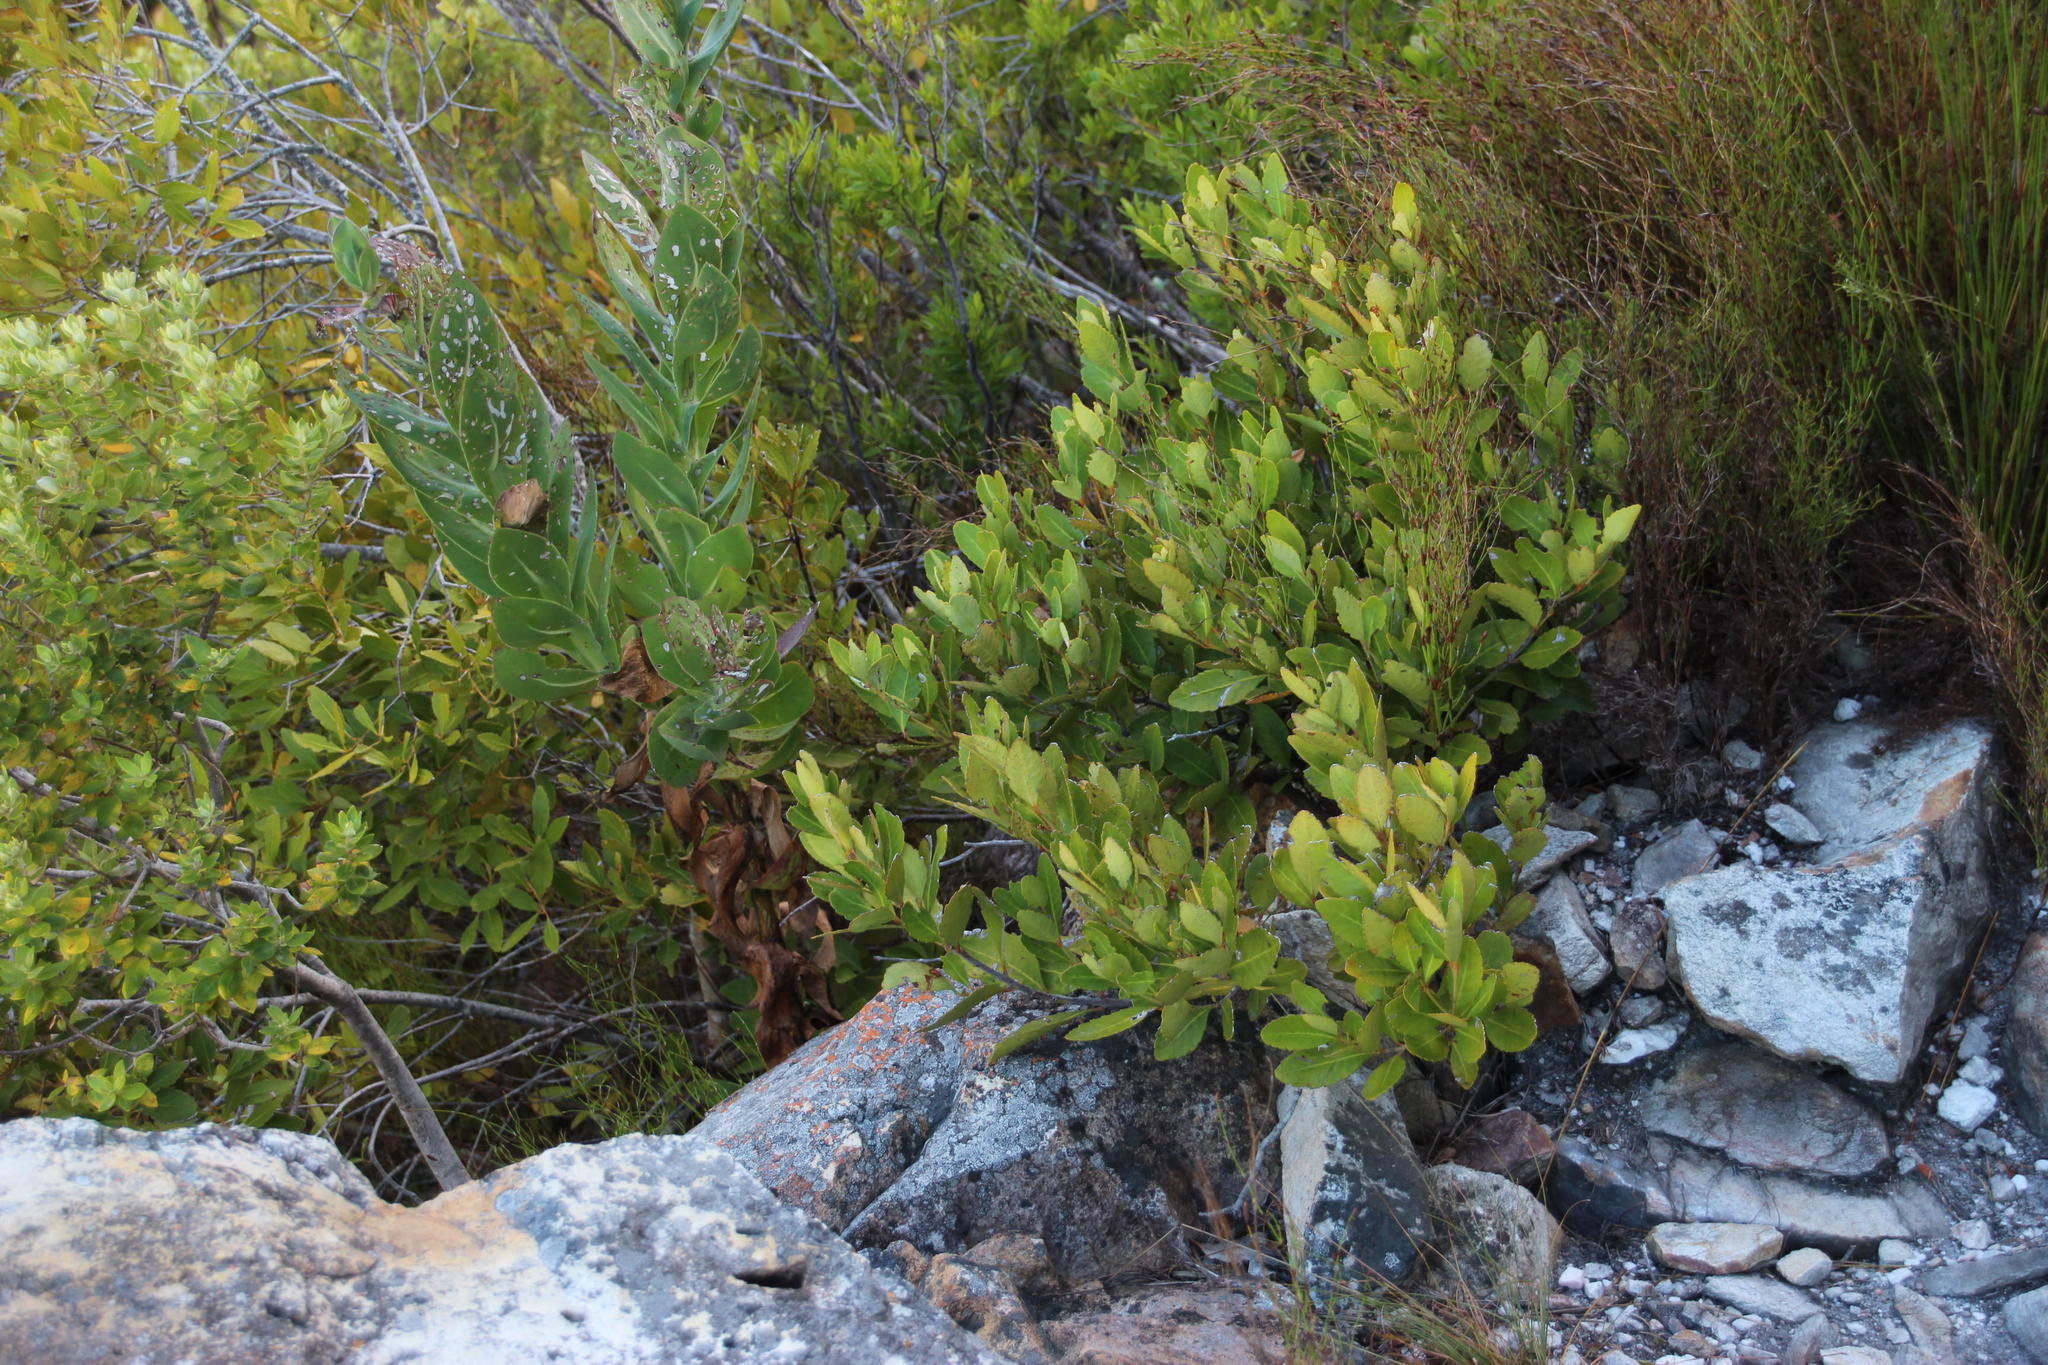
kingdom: Plantae
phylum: Tracheophyta
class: Magnoliopsida
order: Celastrales
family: Celastraceae
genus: Elaeodendron
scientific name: Elaeodendron schinoides
